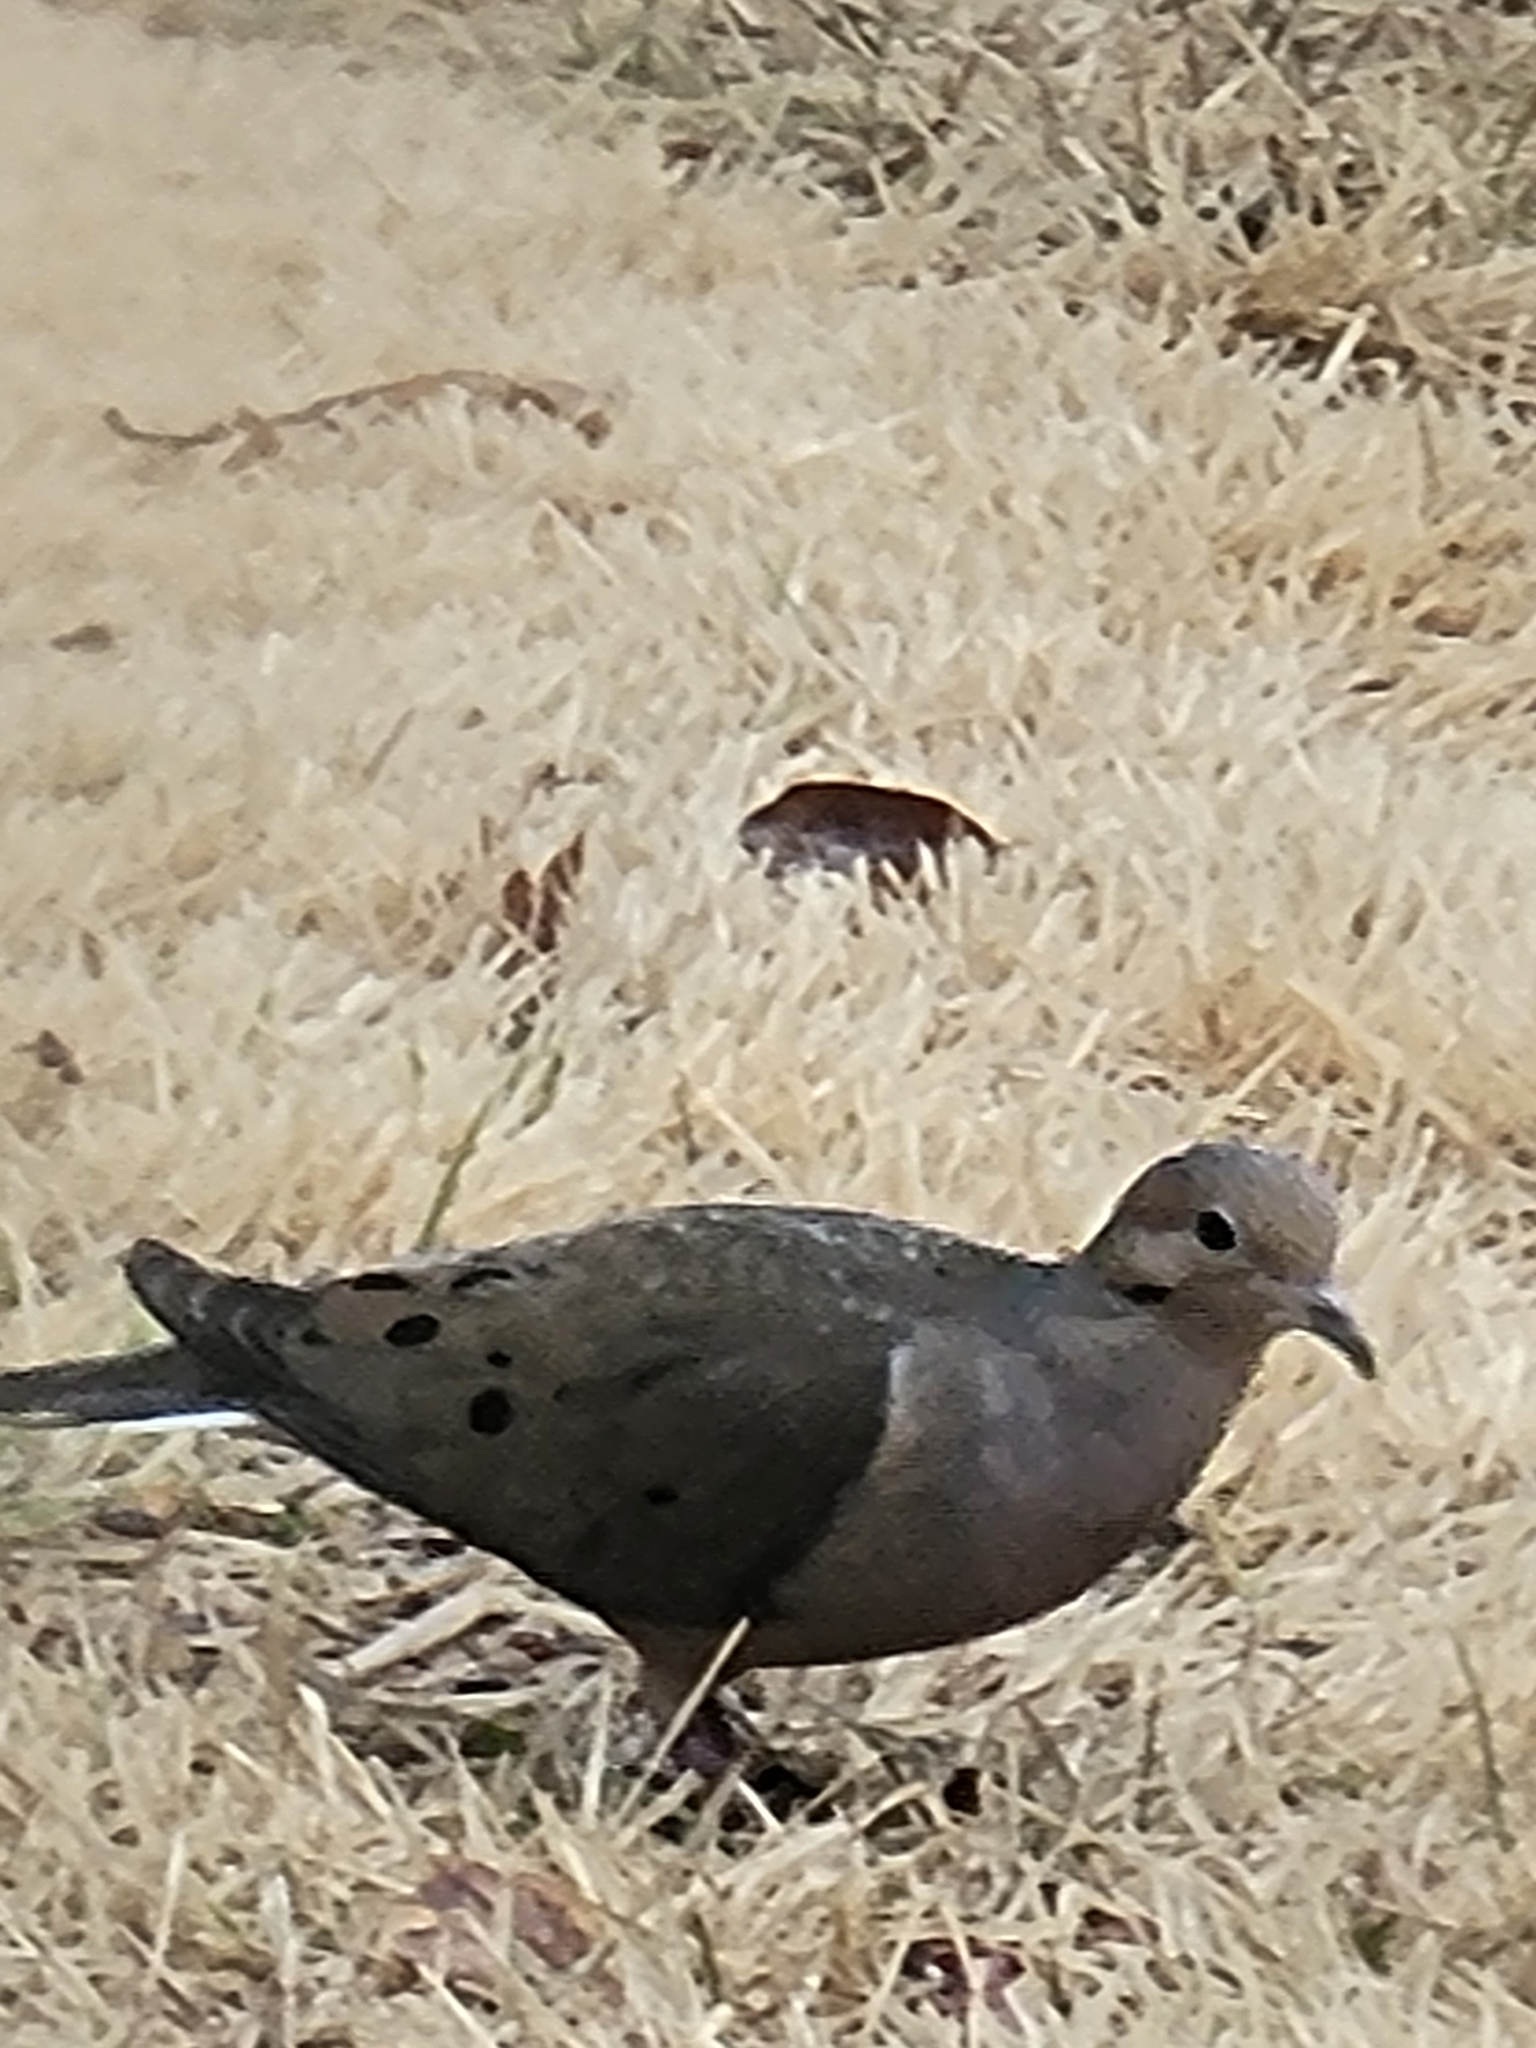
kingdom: Animalia
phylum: Chordata
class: Aves
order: Columbiformes
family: Columbidae
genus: Zenaida
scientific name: Zenaida macroura
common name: Mourning dove
